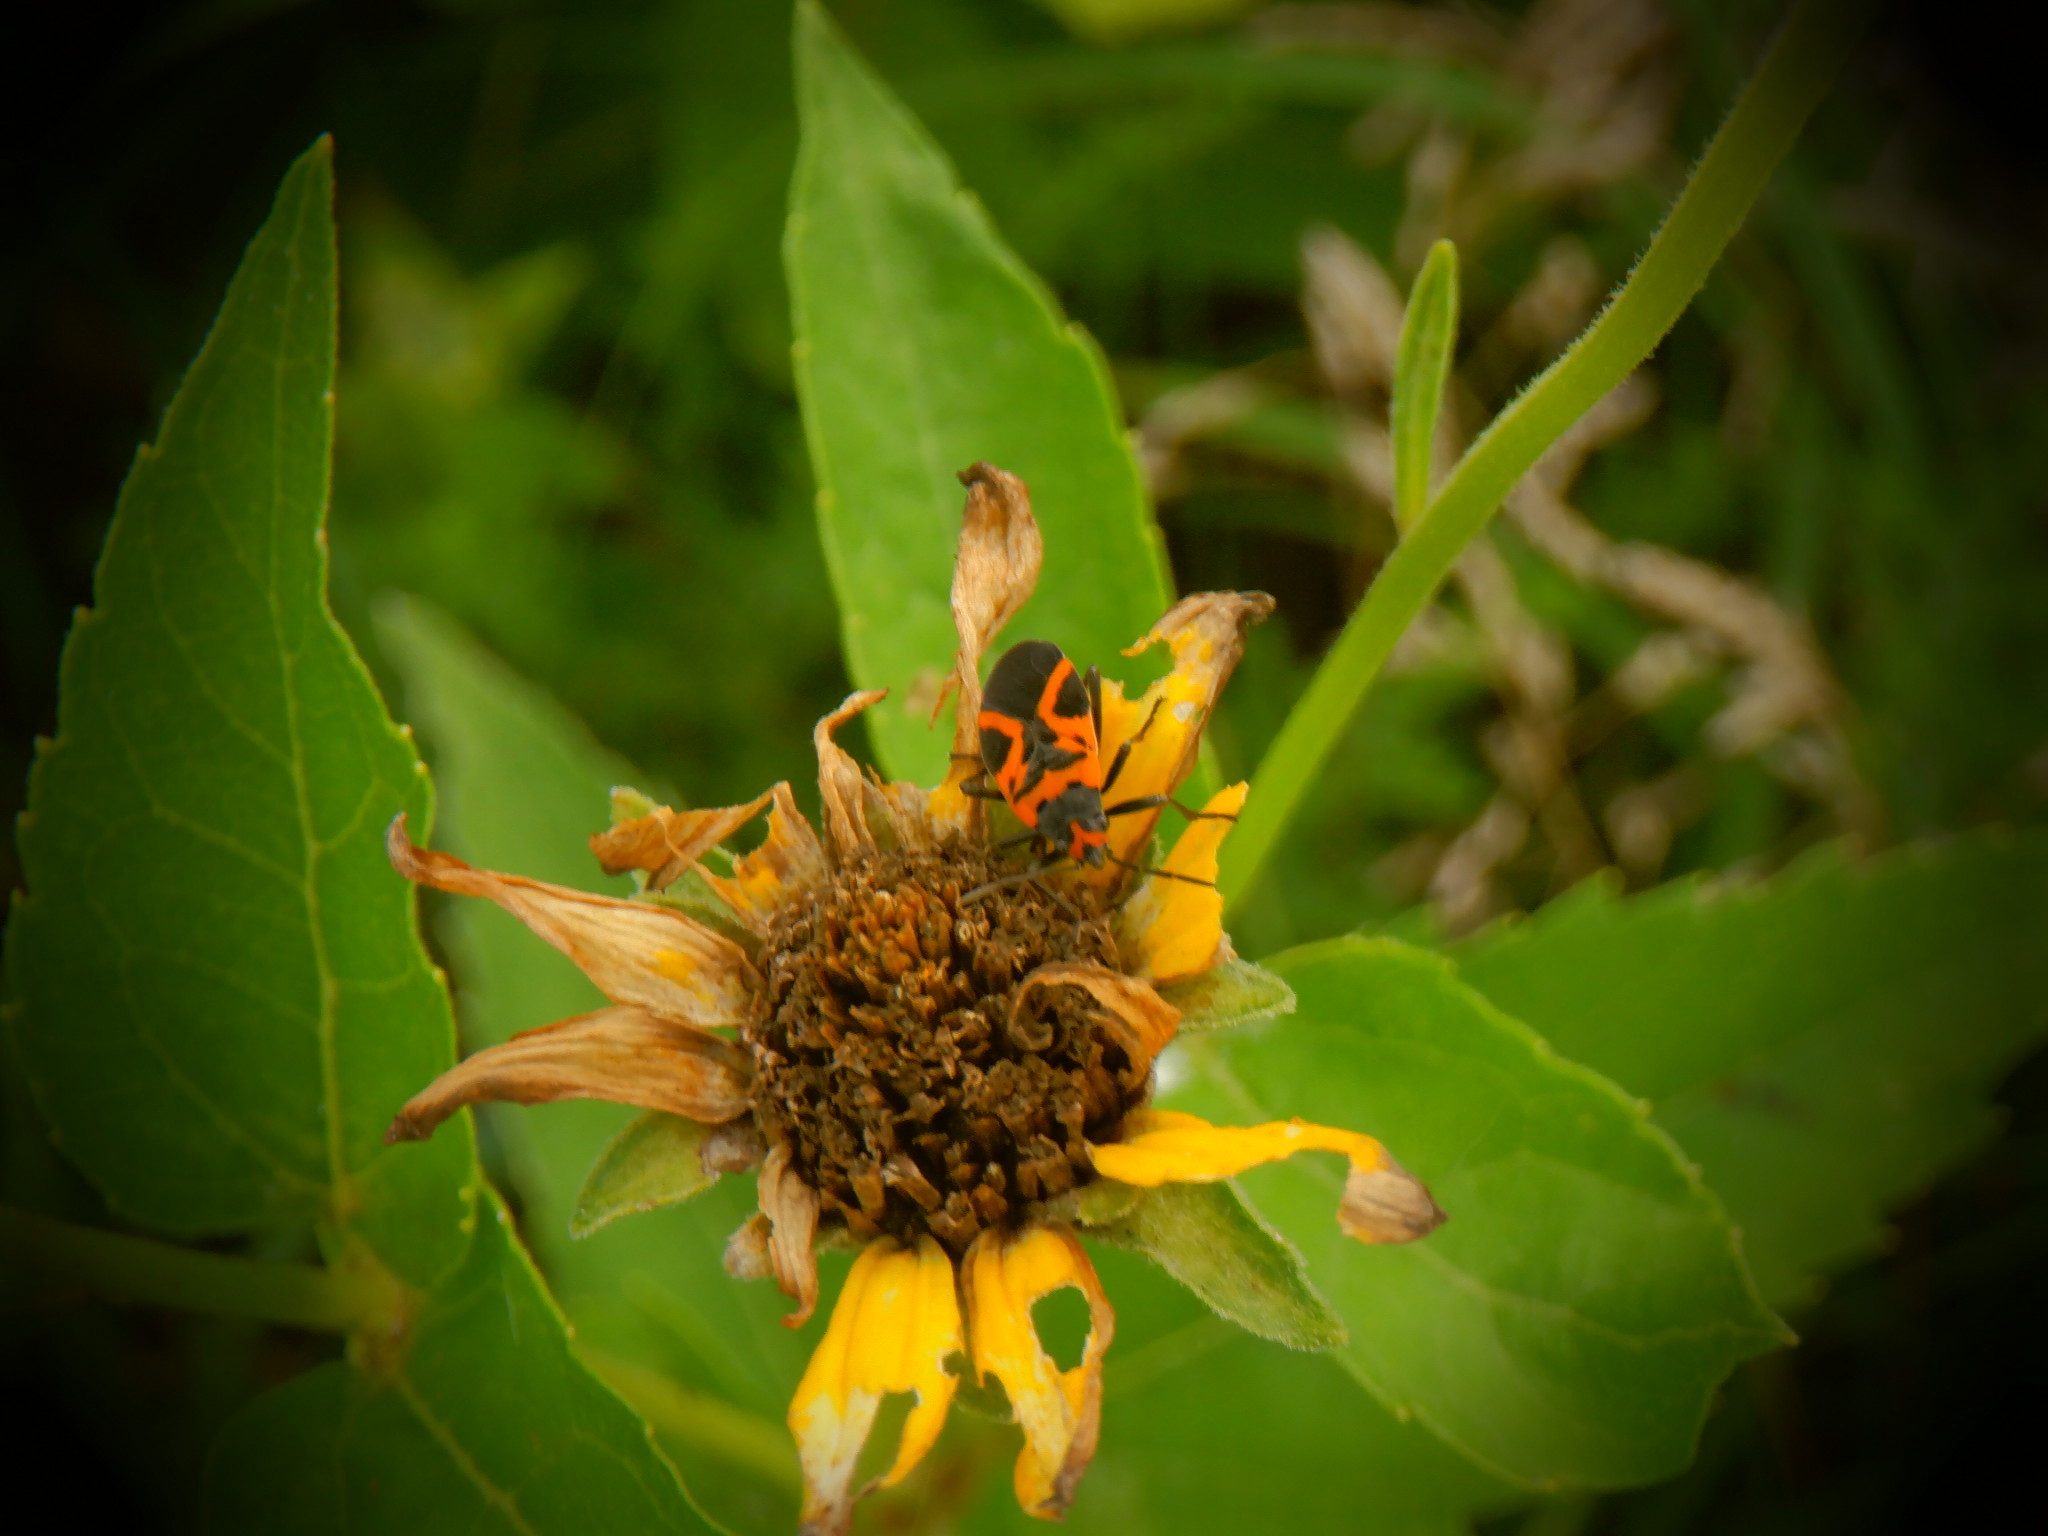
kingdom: Animalia
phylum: Arthropoda
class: Insecta
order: Hemiptera
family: Lygaeidae
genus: Lygaeus
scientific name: Lygaeus turcicus
